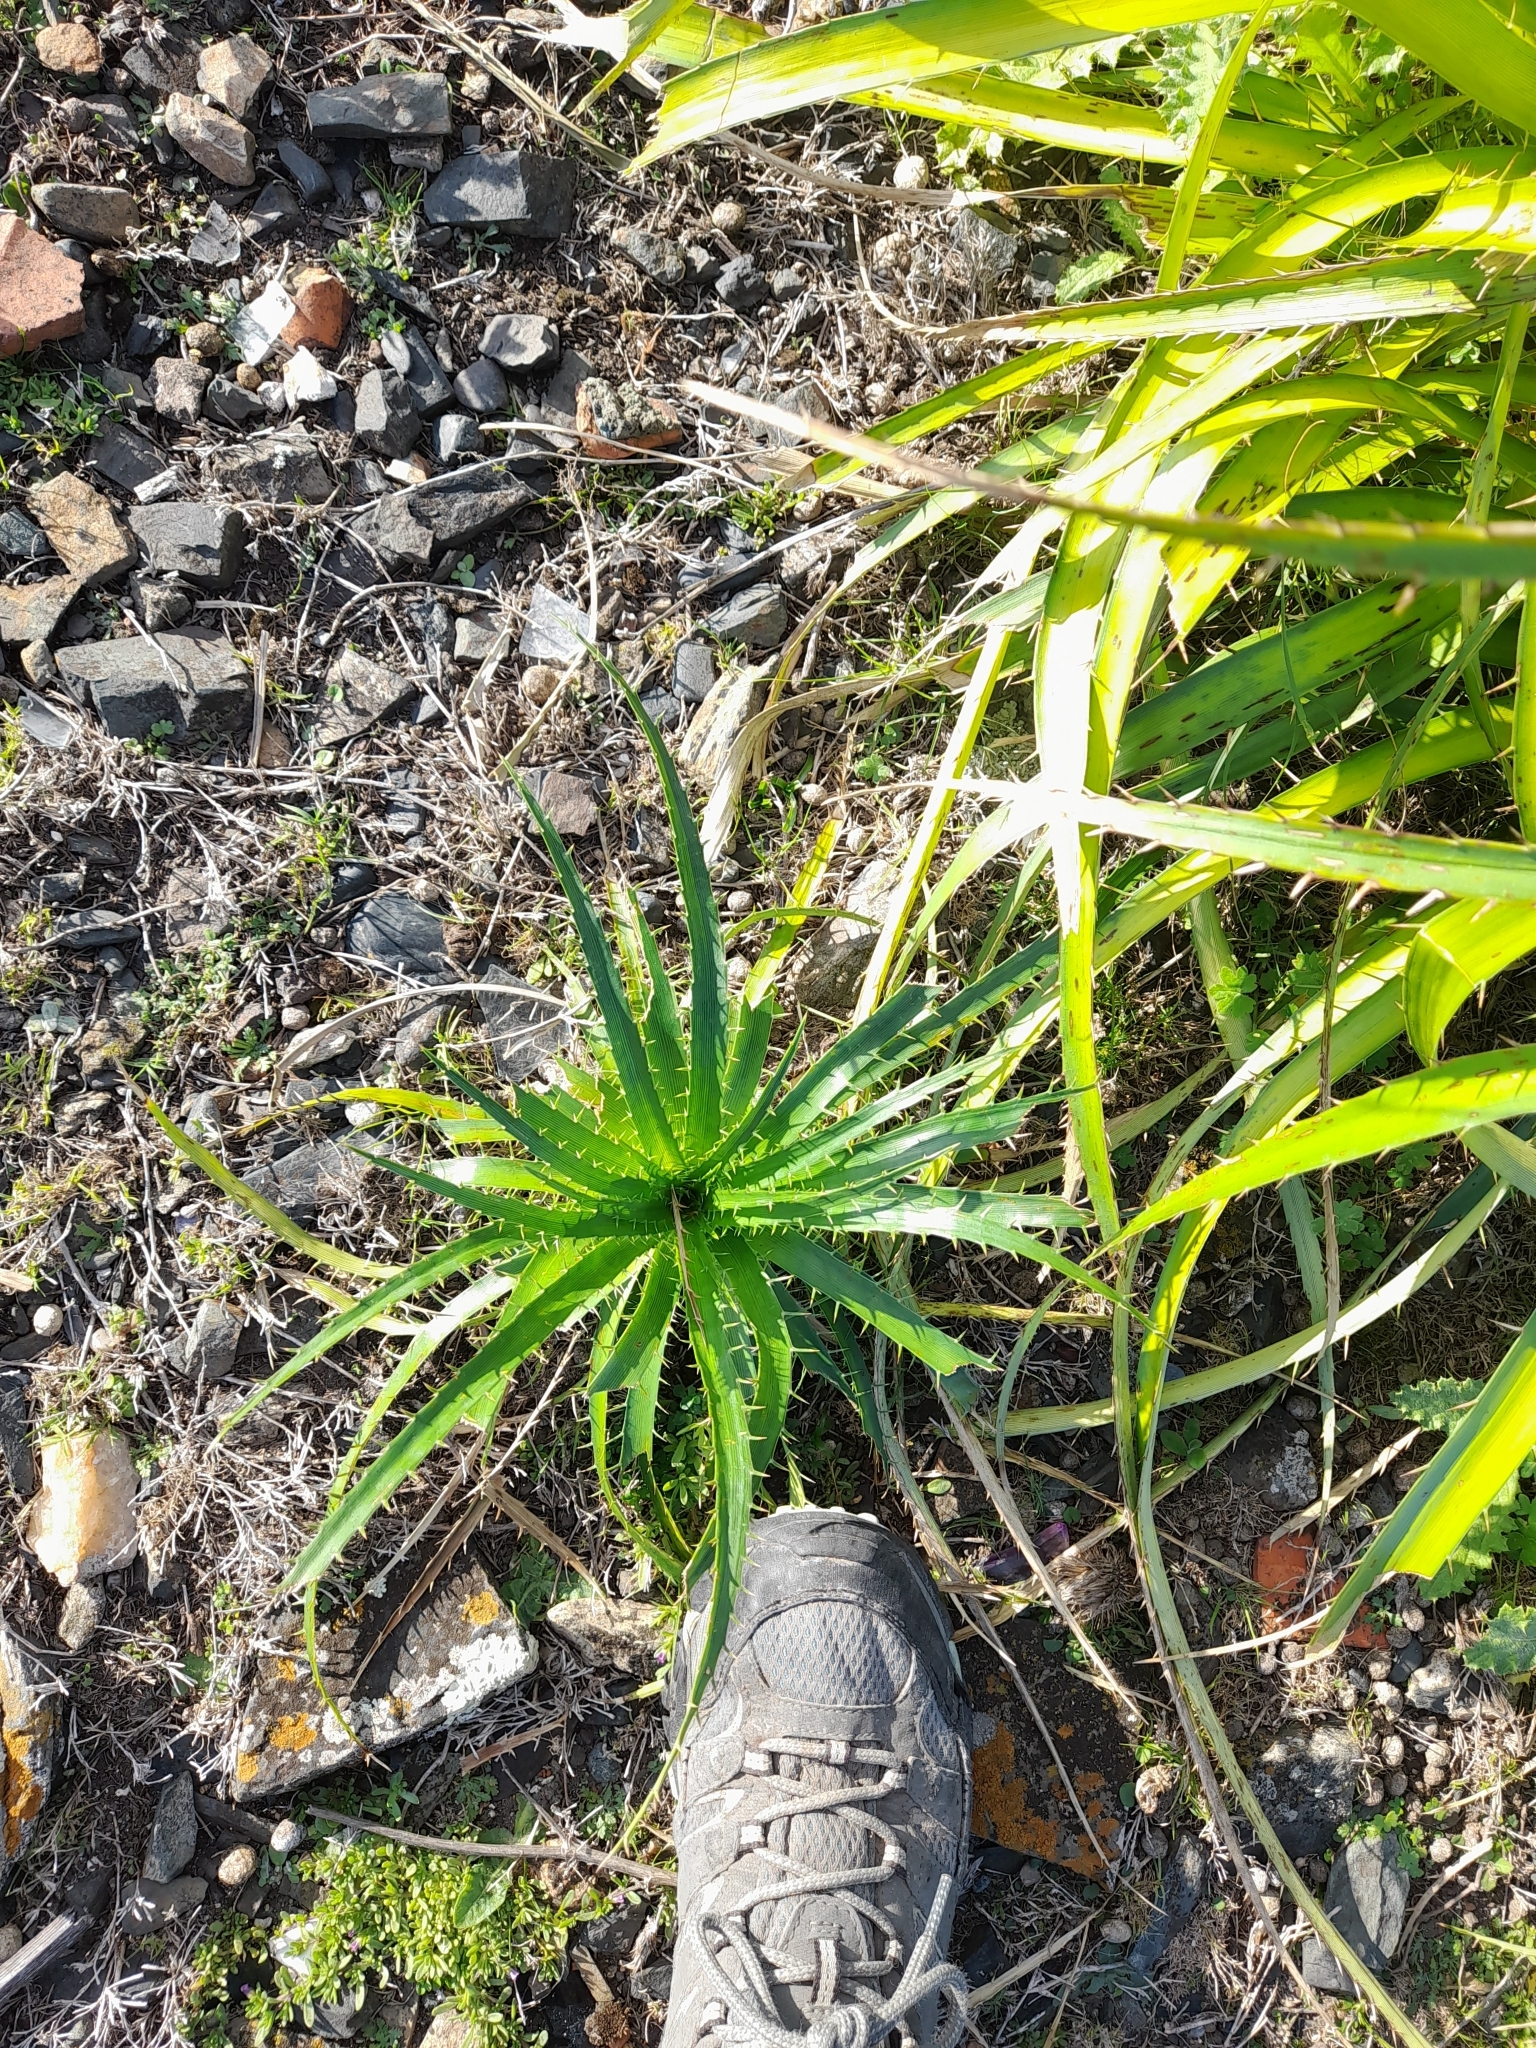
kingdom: Plantae
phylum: Tracheophyta
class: Magnoliopsida
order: Apiales
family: Apiaceae
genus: Eryngium
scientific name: Eryngium horridum
